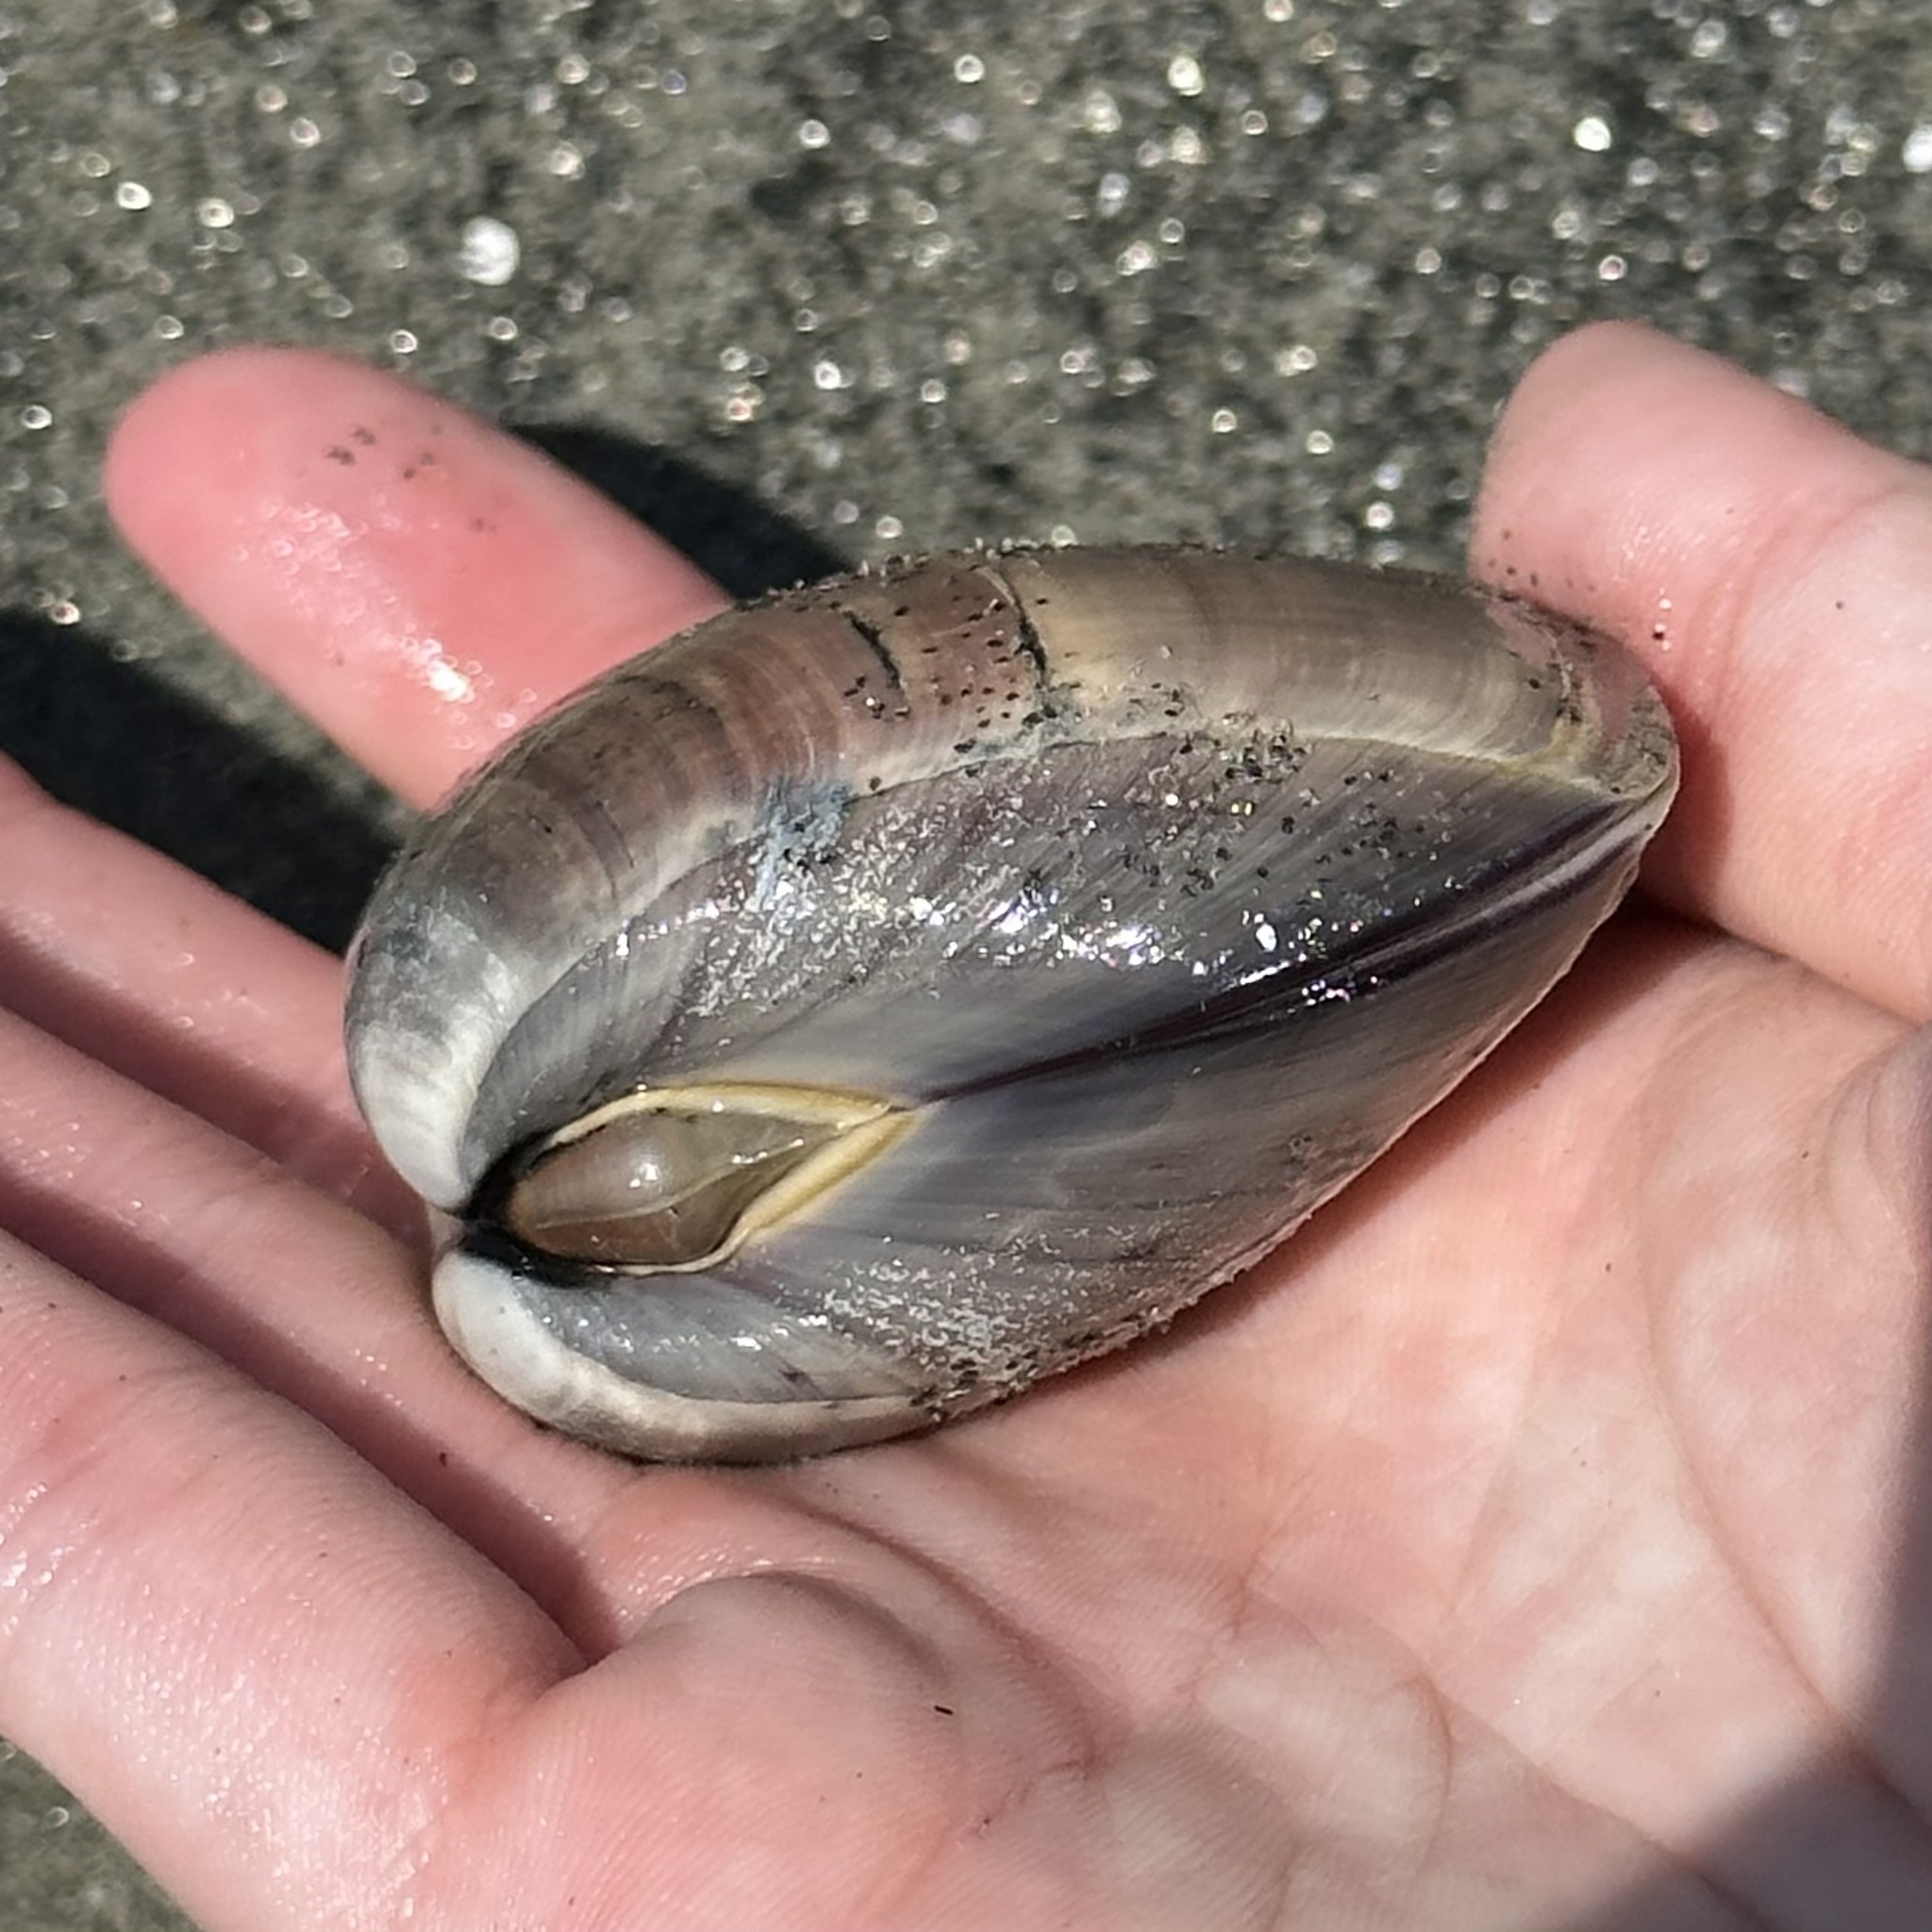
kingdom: Animalia
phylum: Mollusca
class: Bivalvia
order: Venerida
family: Veneridae
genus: Tivela
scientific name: Tivela stultorum
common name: Pismo clam
